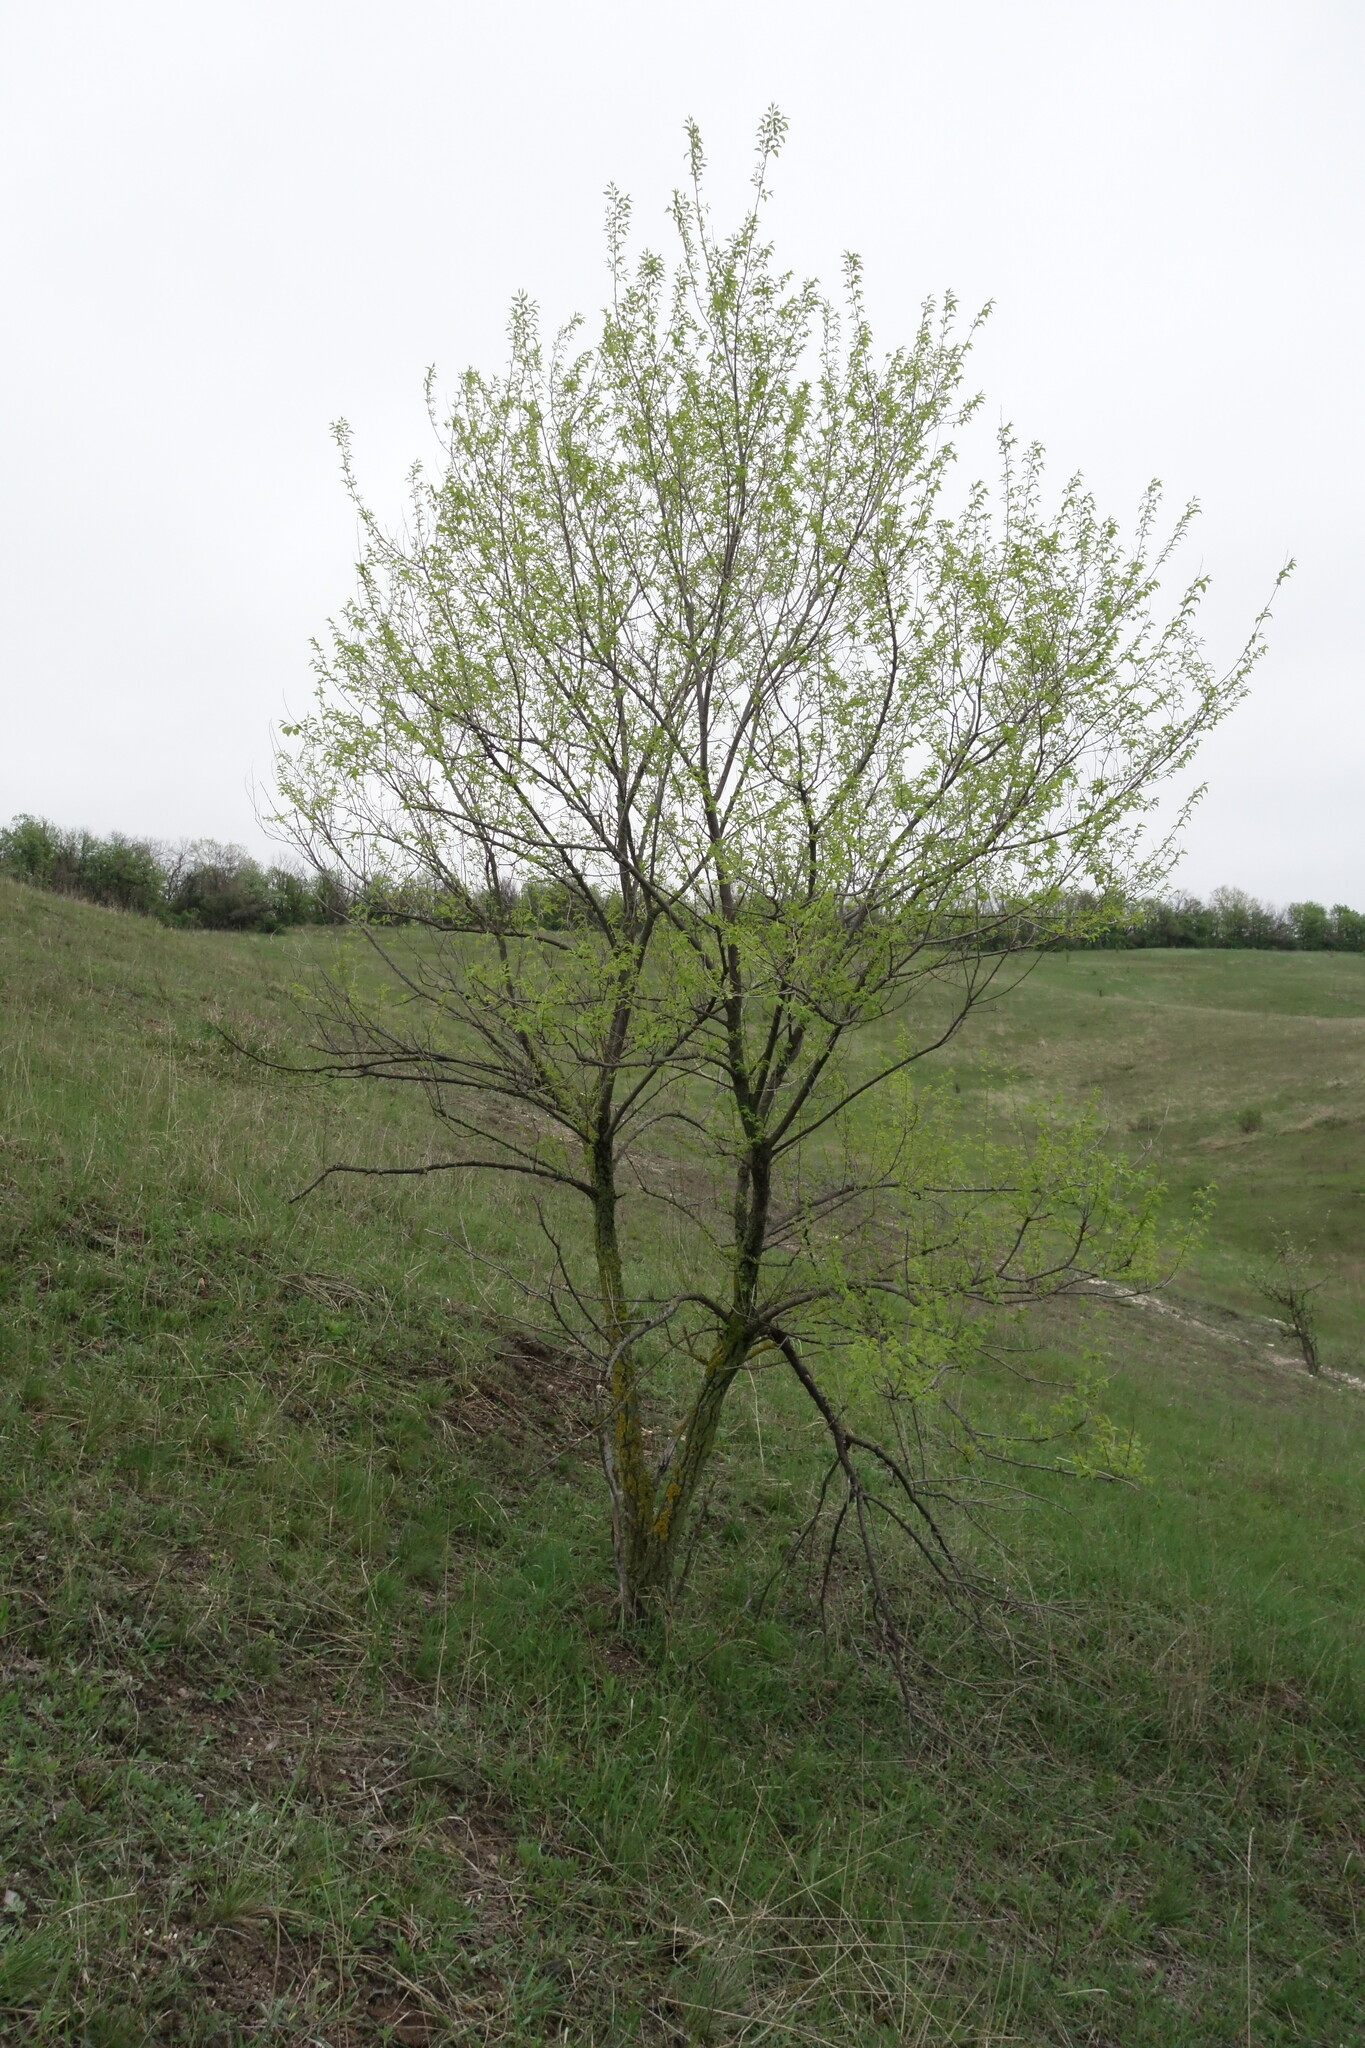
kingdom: Plantae
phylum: Tracheophyta
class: Magnoliopsida
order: Rosales
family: Ulmaceae
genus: Ulmus
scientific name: Ulmus pumila
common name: Siberian elm
